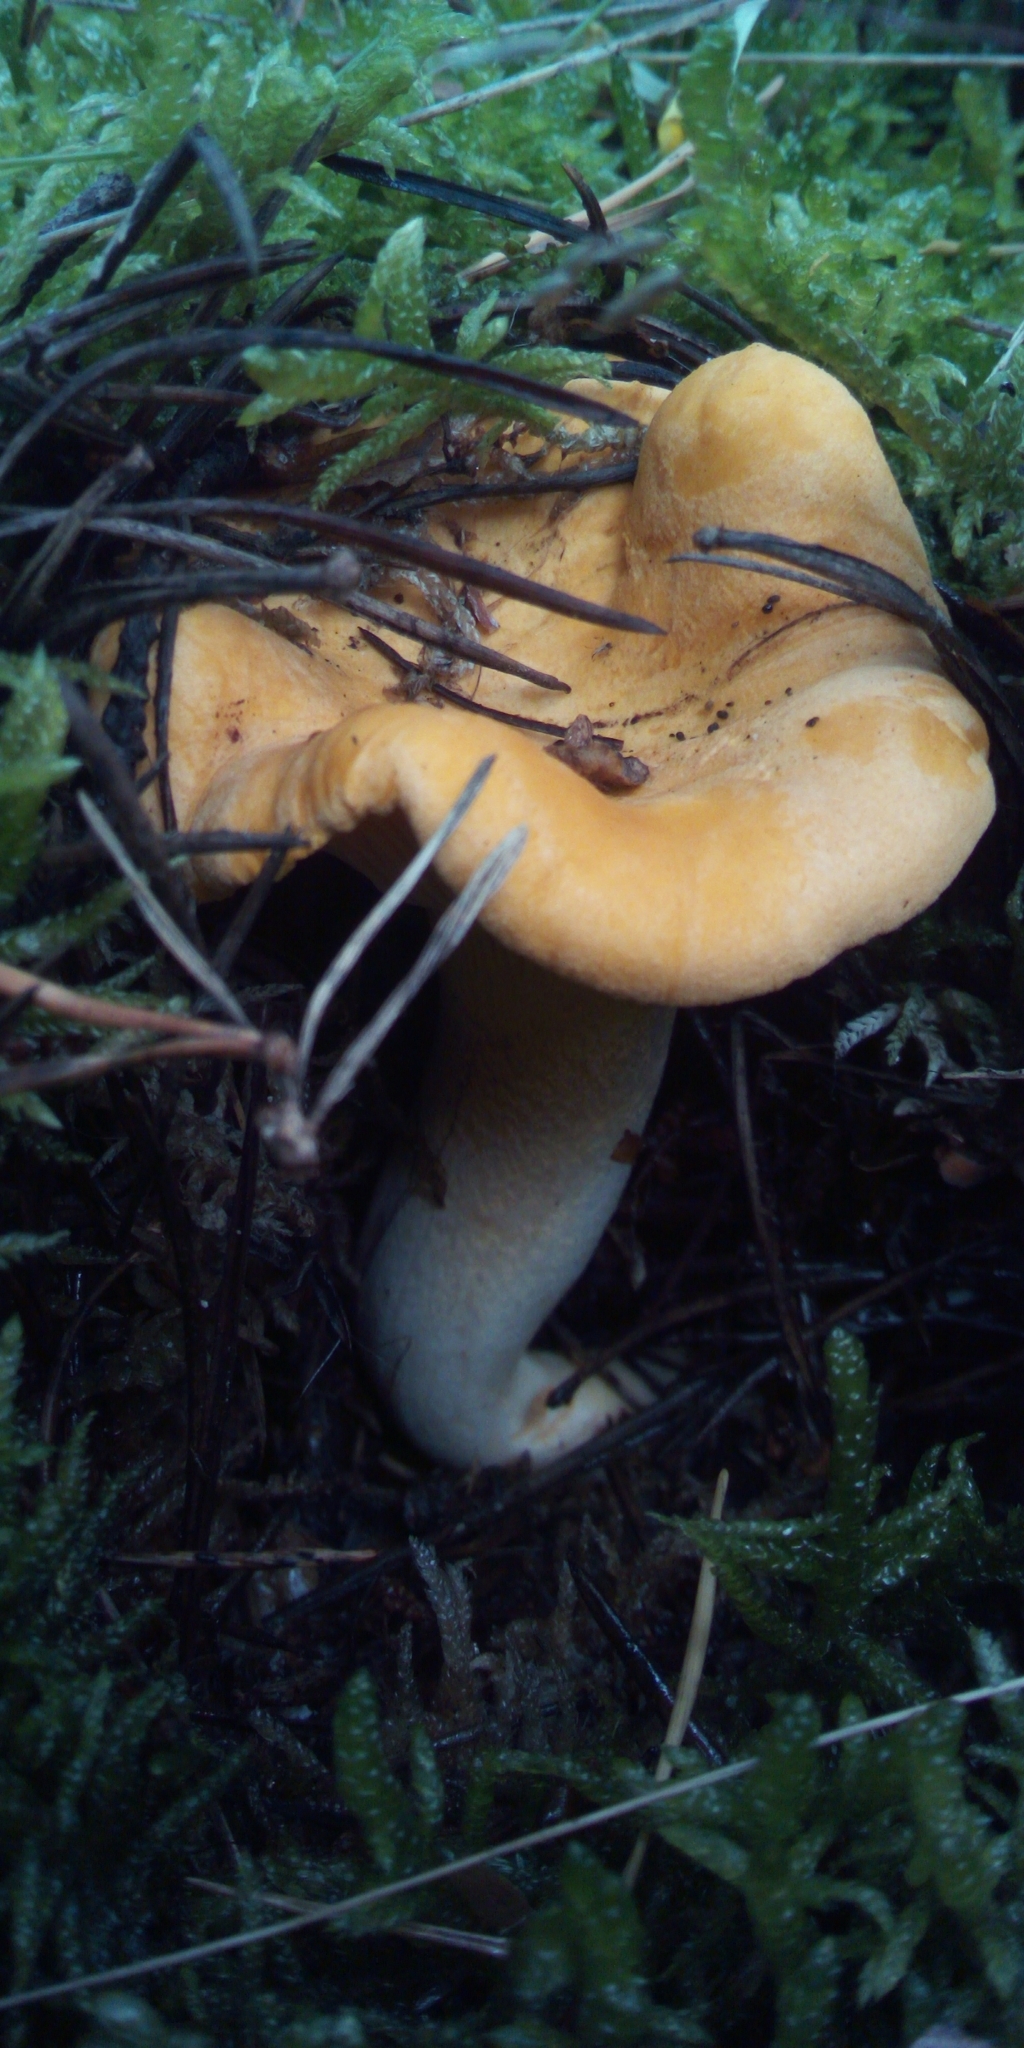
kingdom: Fungi
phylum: Basidiomycota
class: Agaricomycetes
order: Cantharellales
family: Hydnaceae
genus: Cantharellus
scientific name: Cantharellus cibarius
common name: Chanterelle
